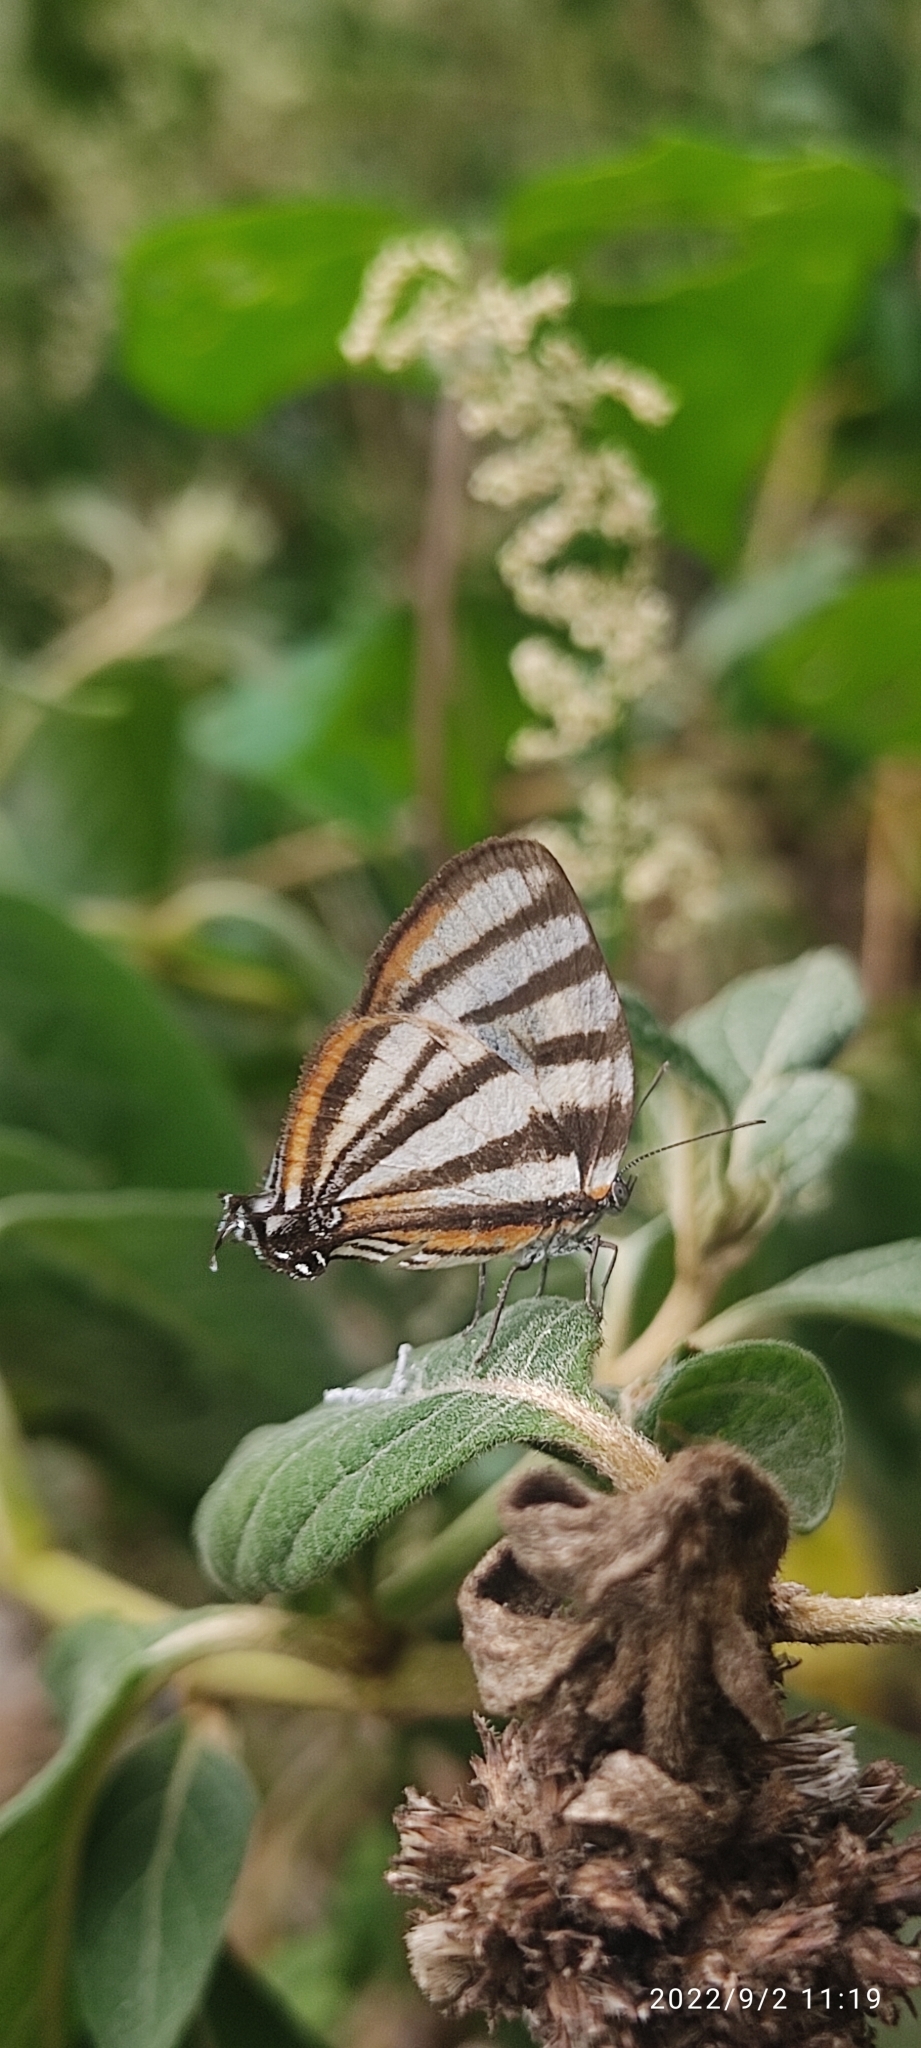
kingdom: Animalia
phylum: Arthropoda
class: Insecta
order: Lepidoptera
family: Lycaenidae
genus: Arawacus
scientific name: Arawacus separata
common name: Separated stripestreak
